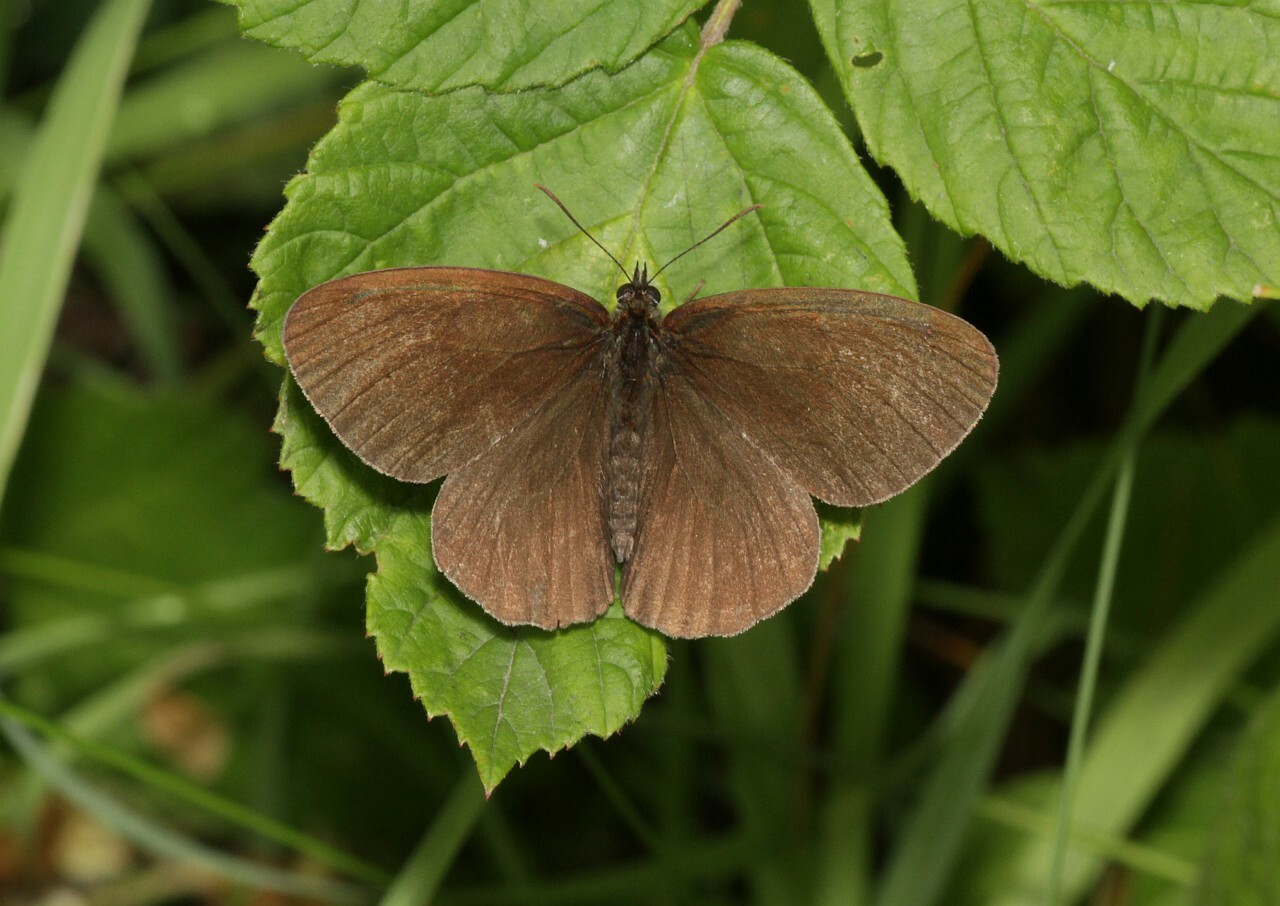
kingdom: Animalia
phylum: Arthropoda
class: Insecta
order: Lepidoptera
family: Nymphalidae
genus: Aphantopus
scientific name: Aphantopus hyperantus
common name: Ringlet
